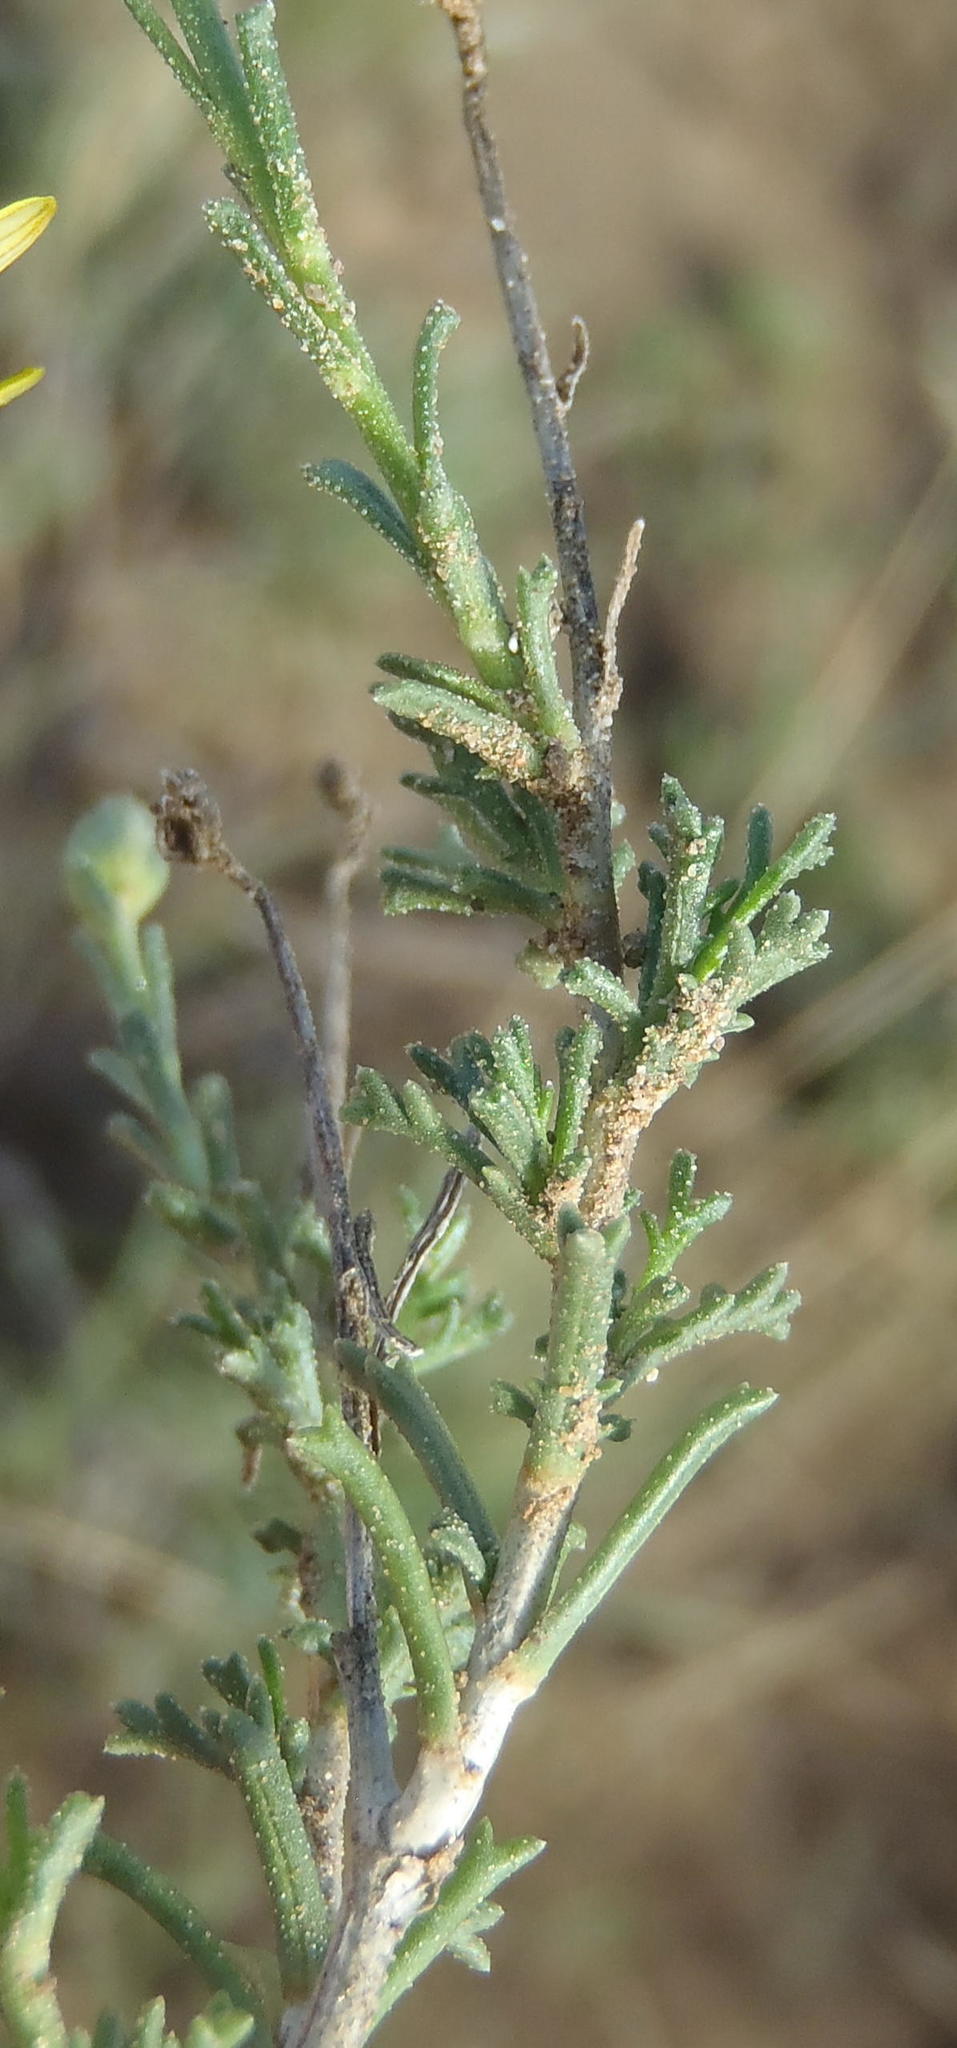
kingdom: Plantae
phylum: Tracheophyta
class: Magnoliopsida
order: Asterales
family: Asteraceae
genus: Osteospermum
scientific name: Osteospermum leptolobum
